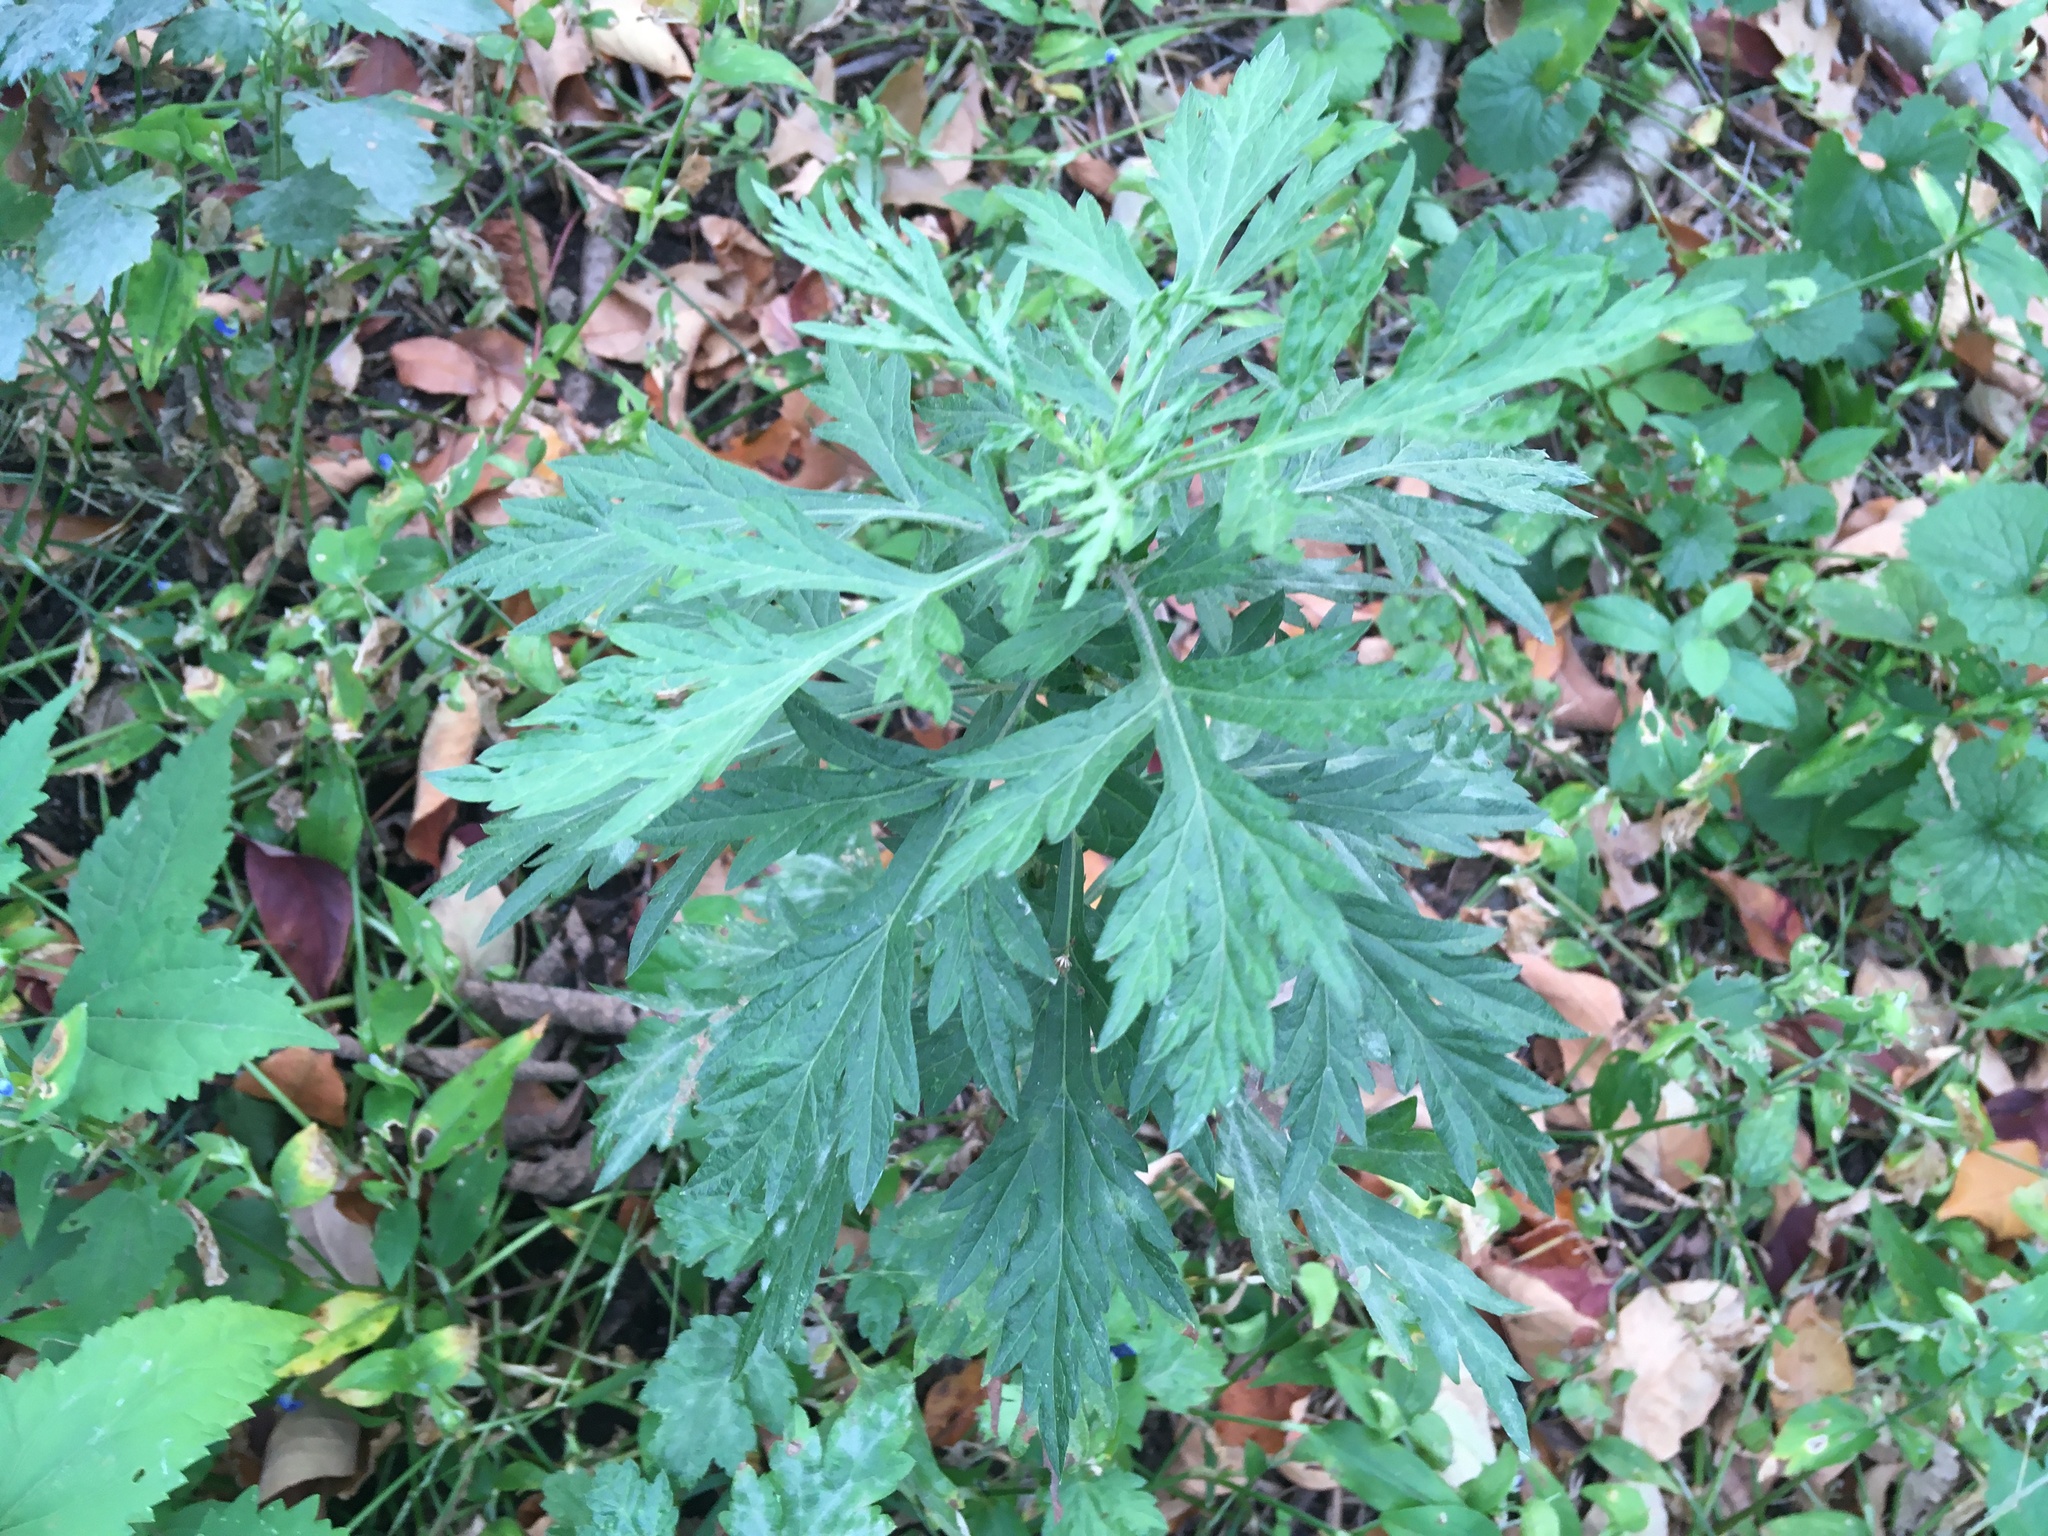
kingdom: Plantae
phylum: Tracheophyta
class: Magnoliopsida
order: Asterales
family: Asteraceae
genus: Artemisia
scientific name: Artemisia vulgaris
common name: Mugwort
